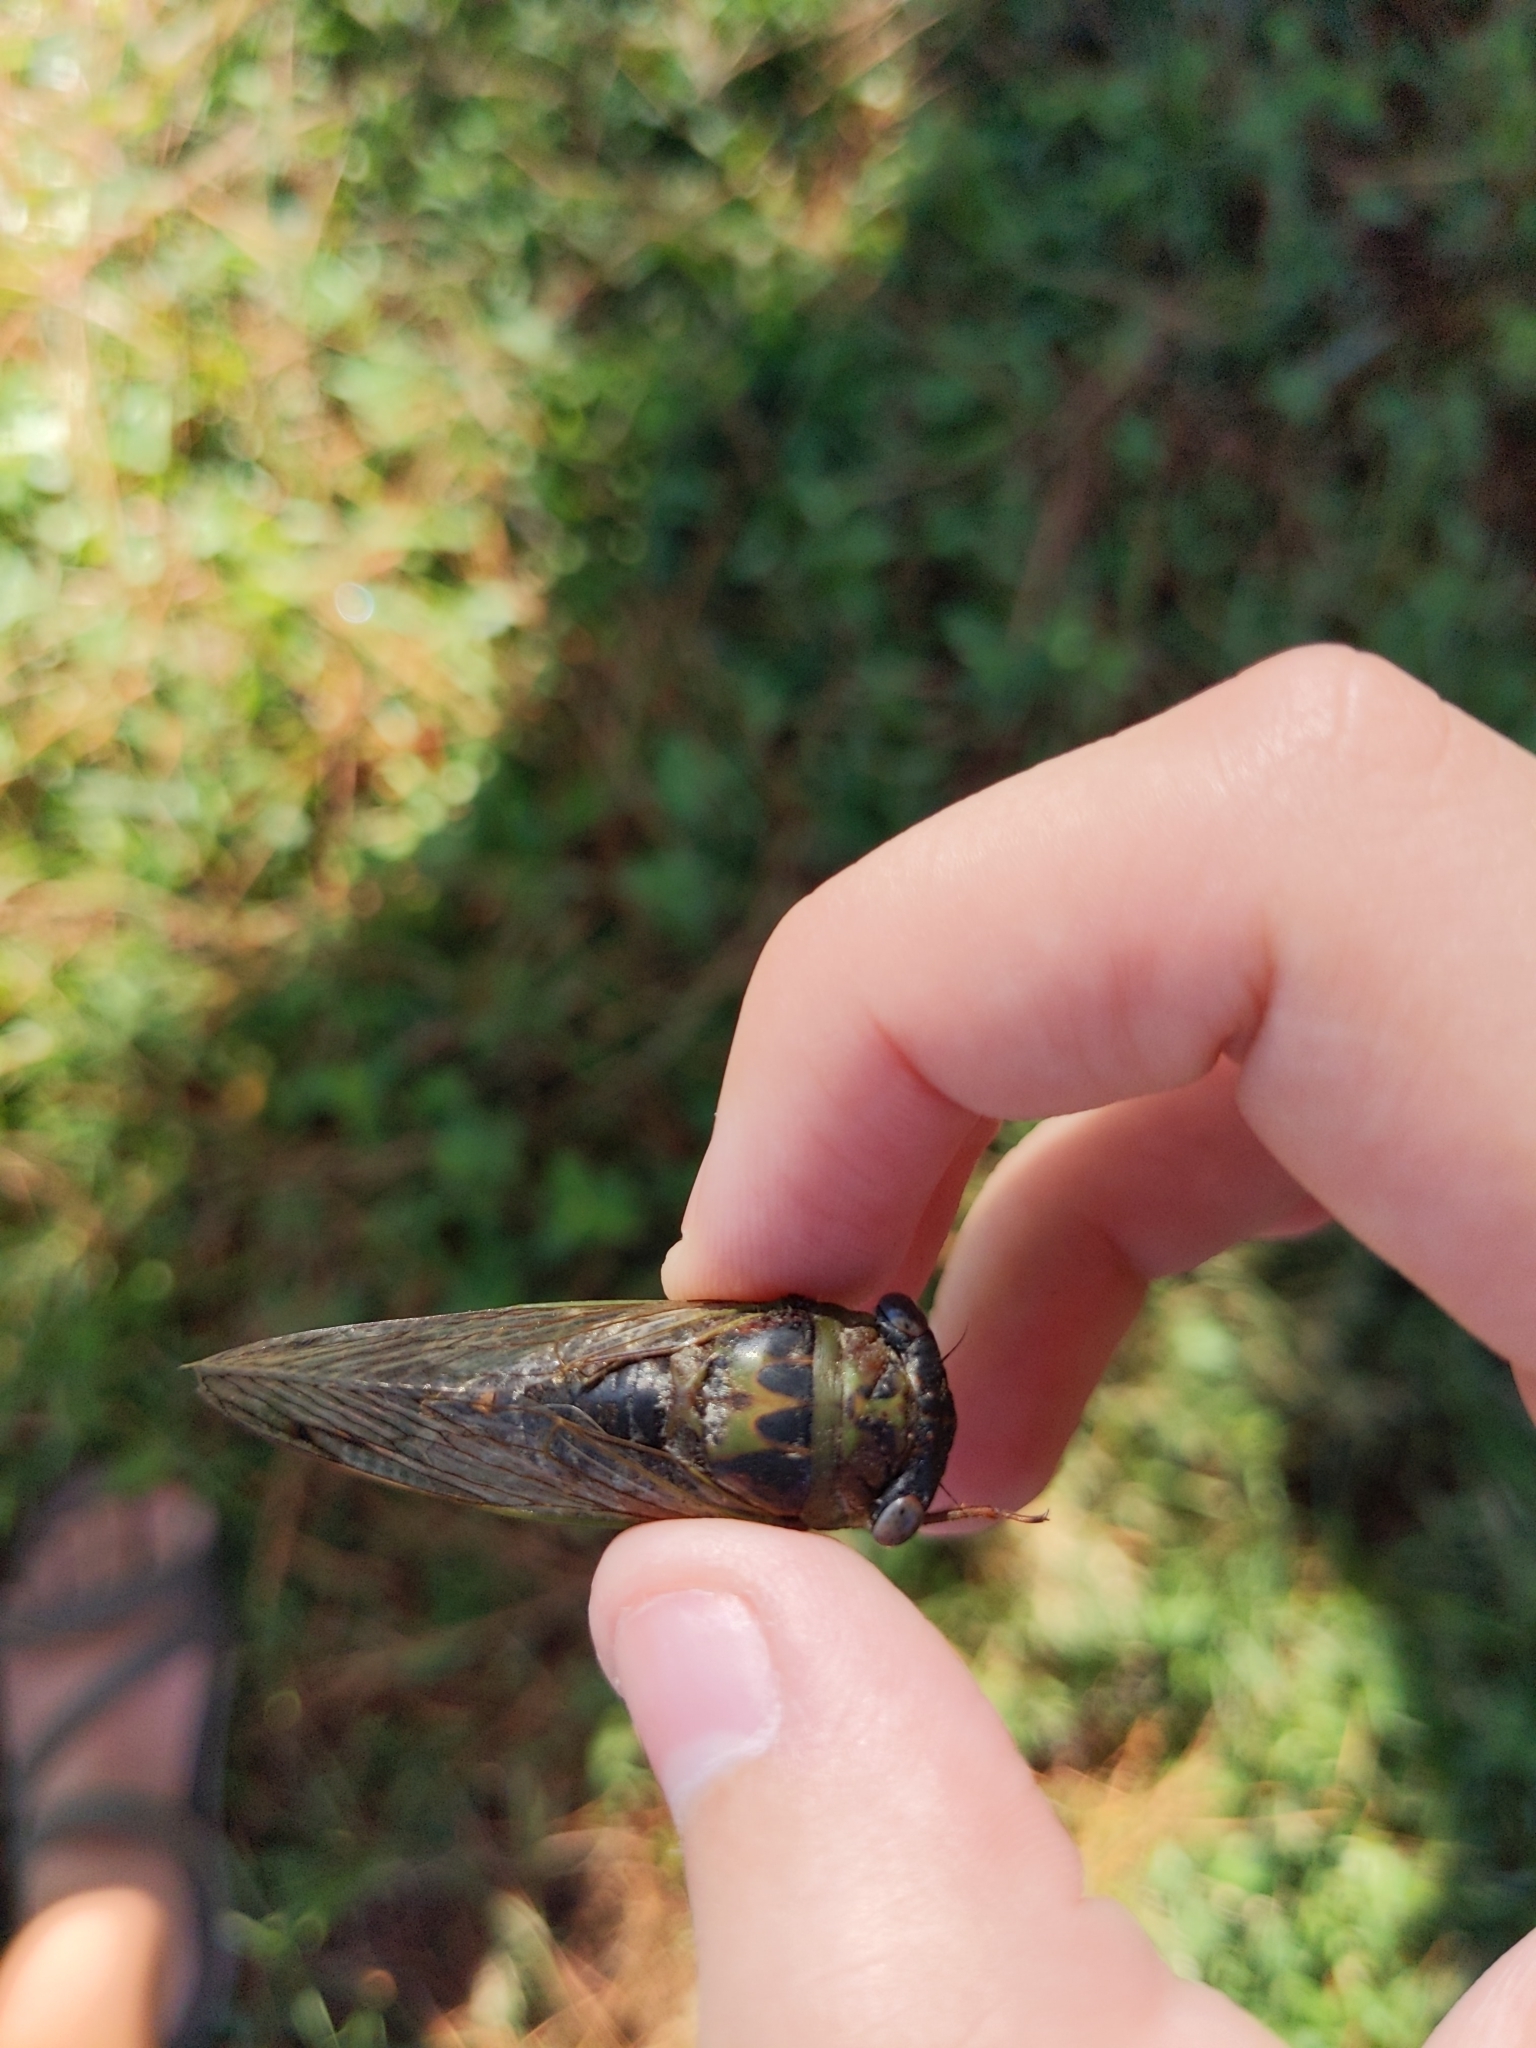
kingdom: Animalia
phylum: Arthropoda
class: Insecta
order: Hemiptera
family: Cicadidae
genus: Neotibicen
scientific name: Neotibicen davisi
